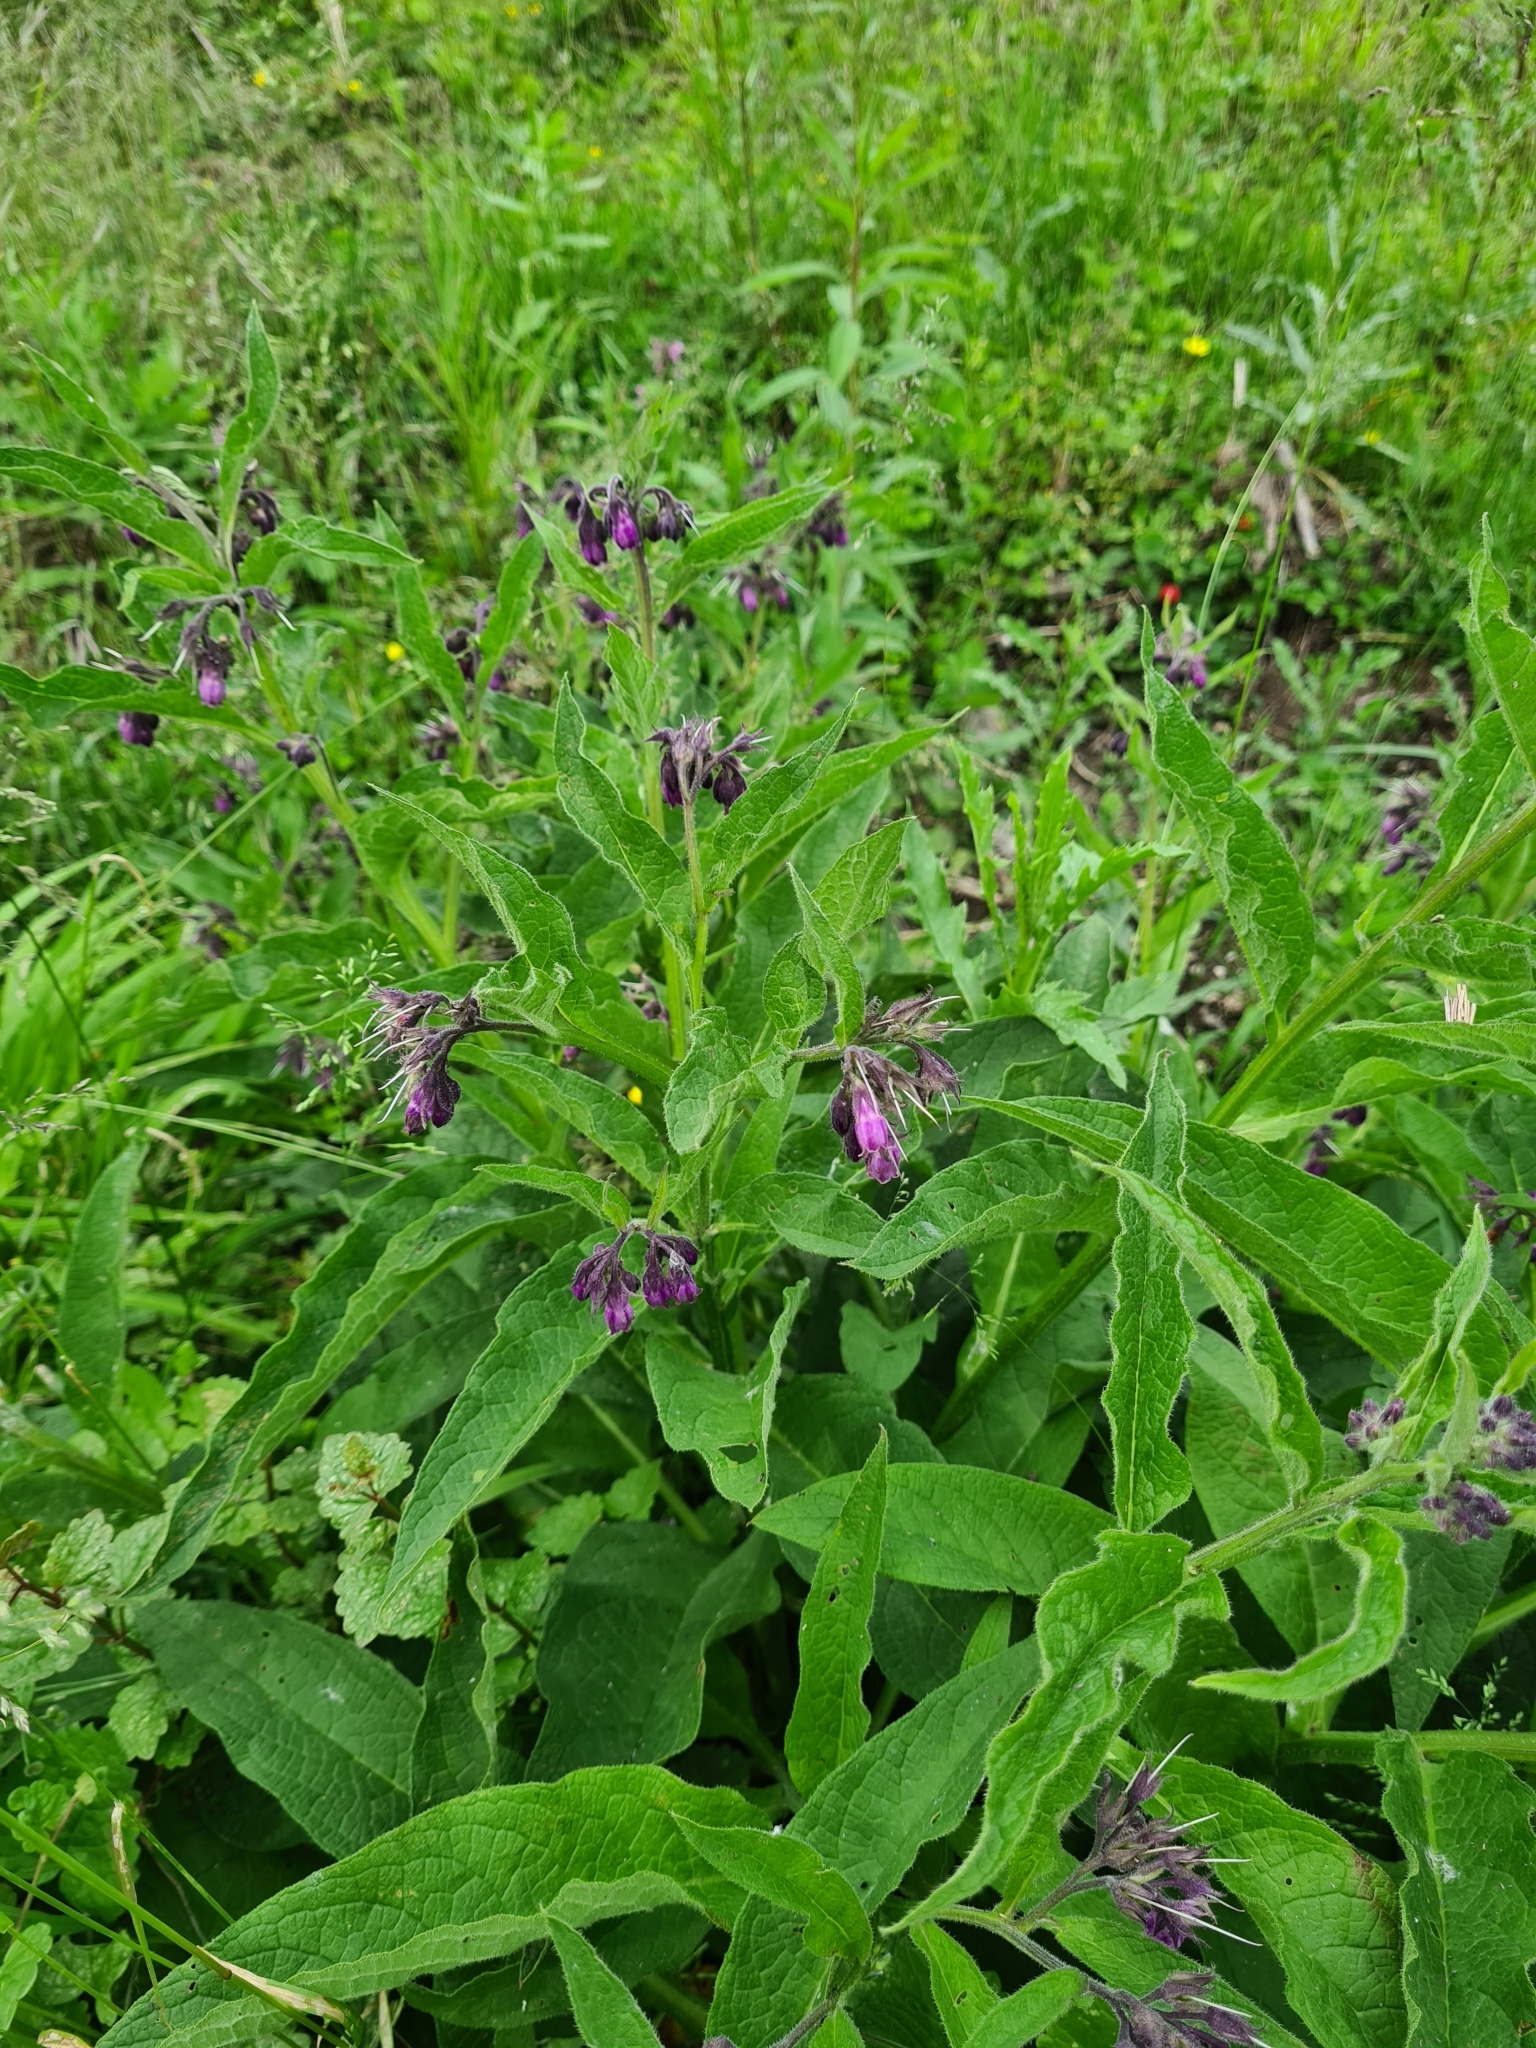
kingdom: Plantae
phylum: Tracheophyta
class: Magnoliopsida
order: Boraginales
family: Boraginaceae
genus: Symphytum
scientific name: Symphytum officinale
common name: Common comfrey
